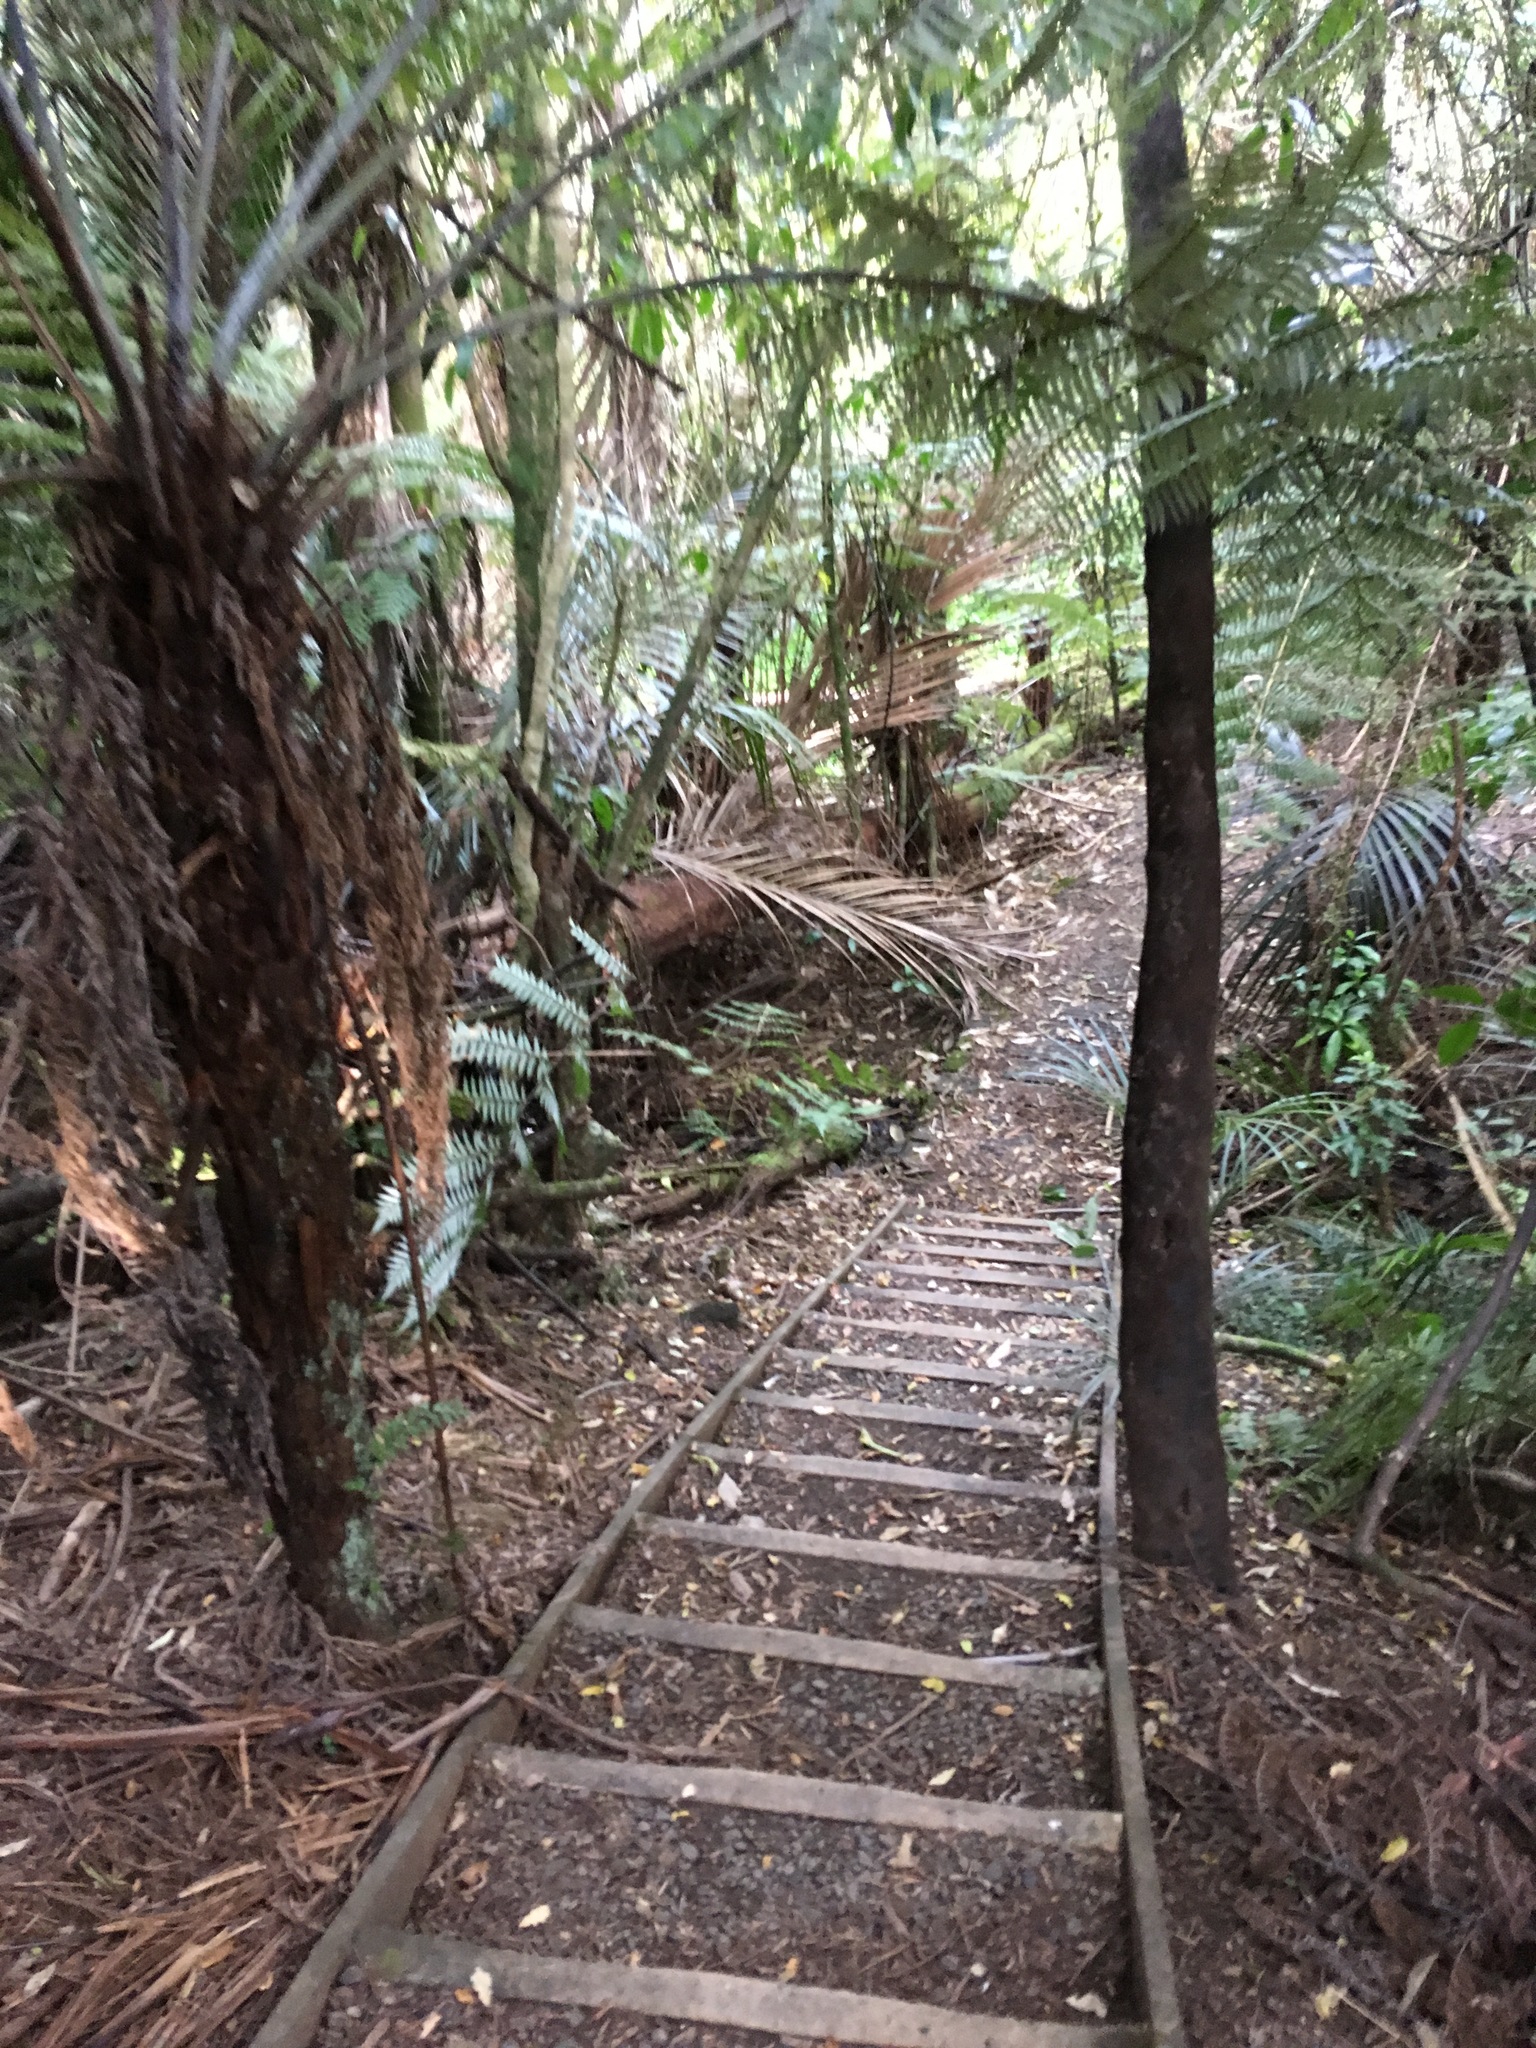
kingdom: Plantae
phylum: Tracheophyta
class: Polypodiopsida
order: Cyatheales
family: Cyatheaceae
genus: Alsophila
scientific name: Alsophila dealbata
